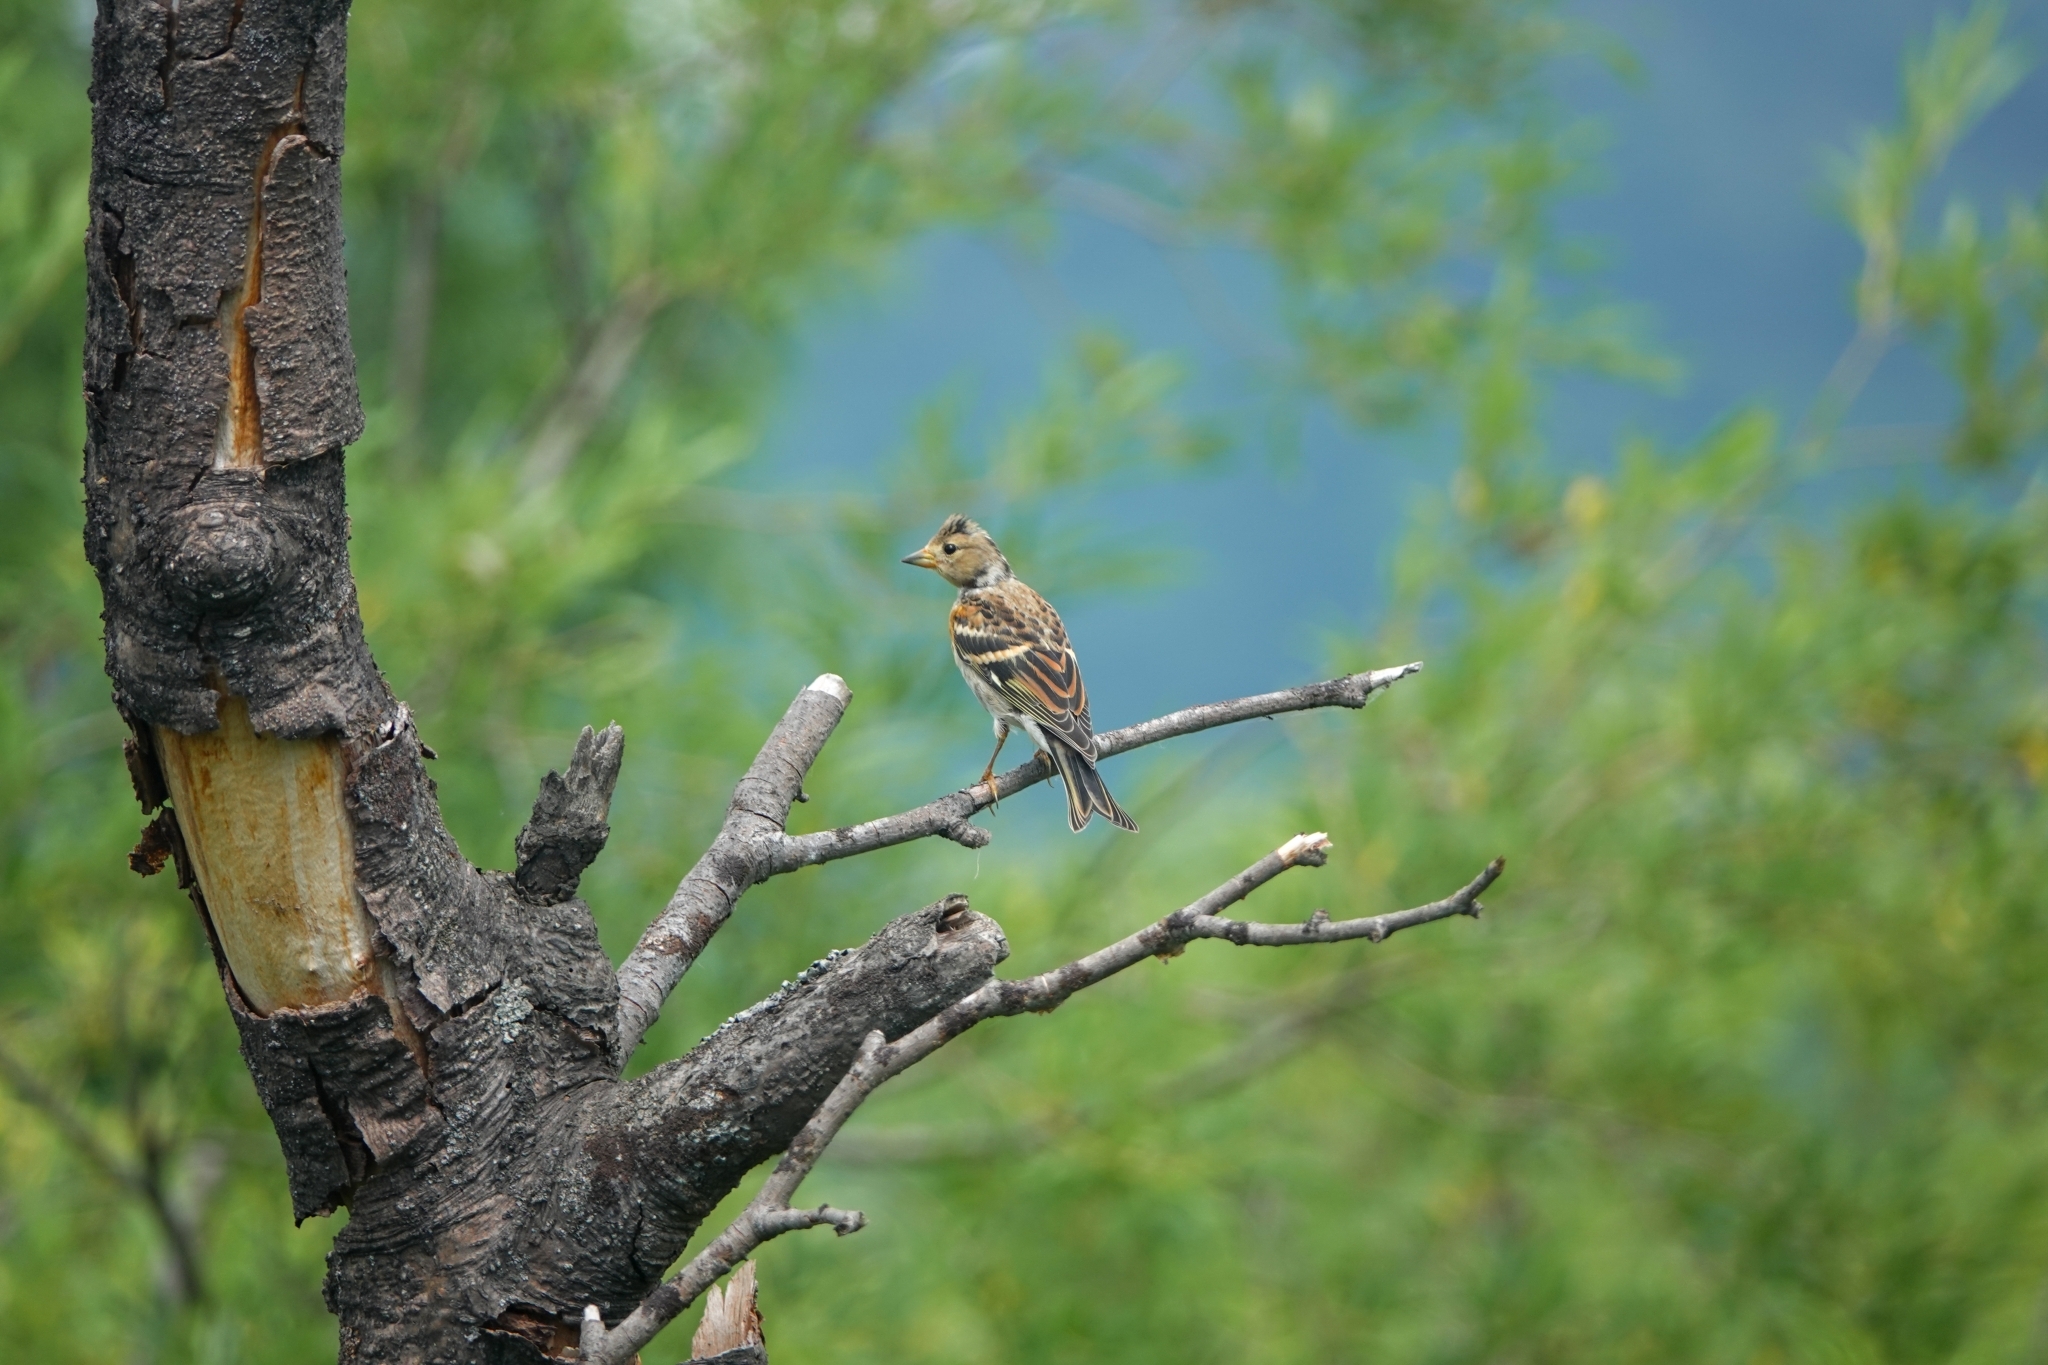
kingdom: Animalia
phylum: Chordata
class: Aves
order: Passeriformes
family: Fringillidae
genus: Fringilla
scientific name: Fringilla montifringilla
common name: Brambling
